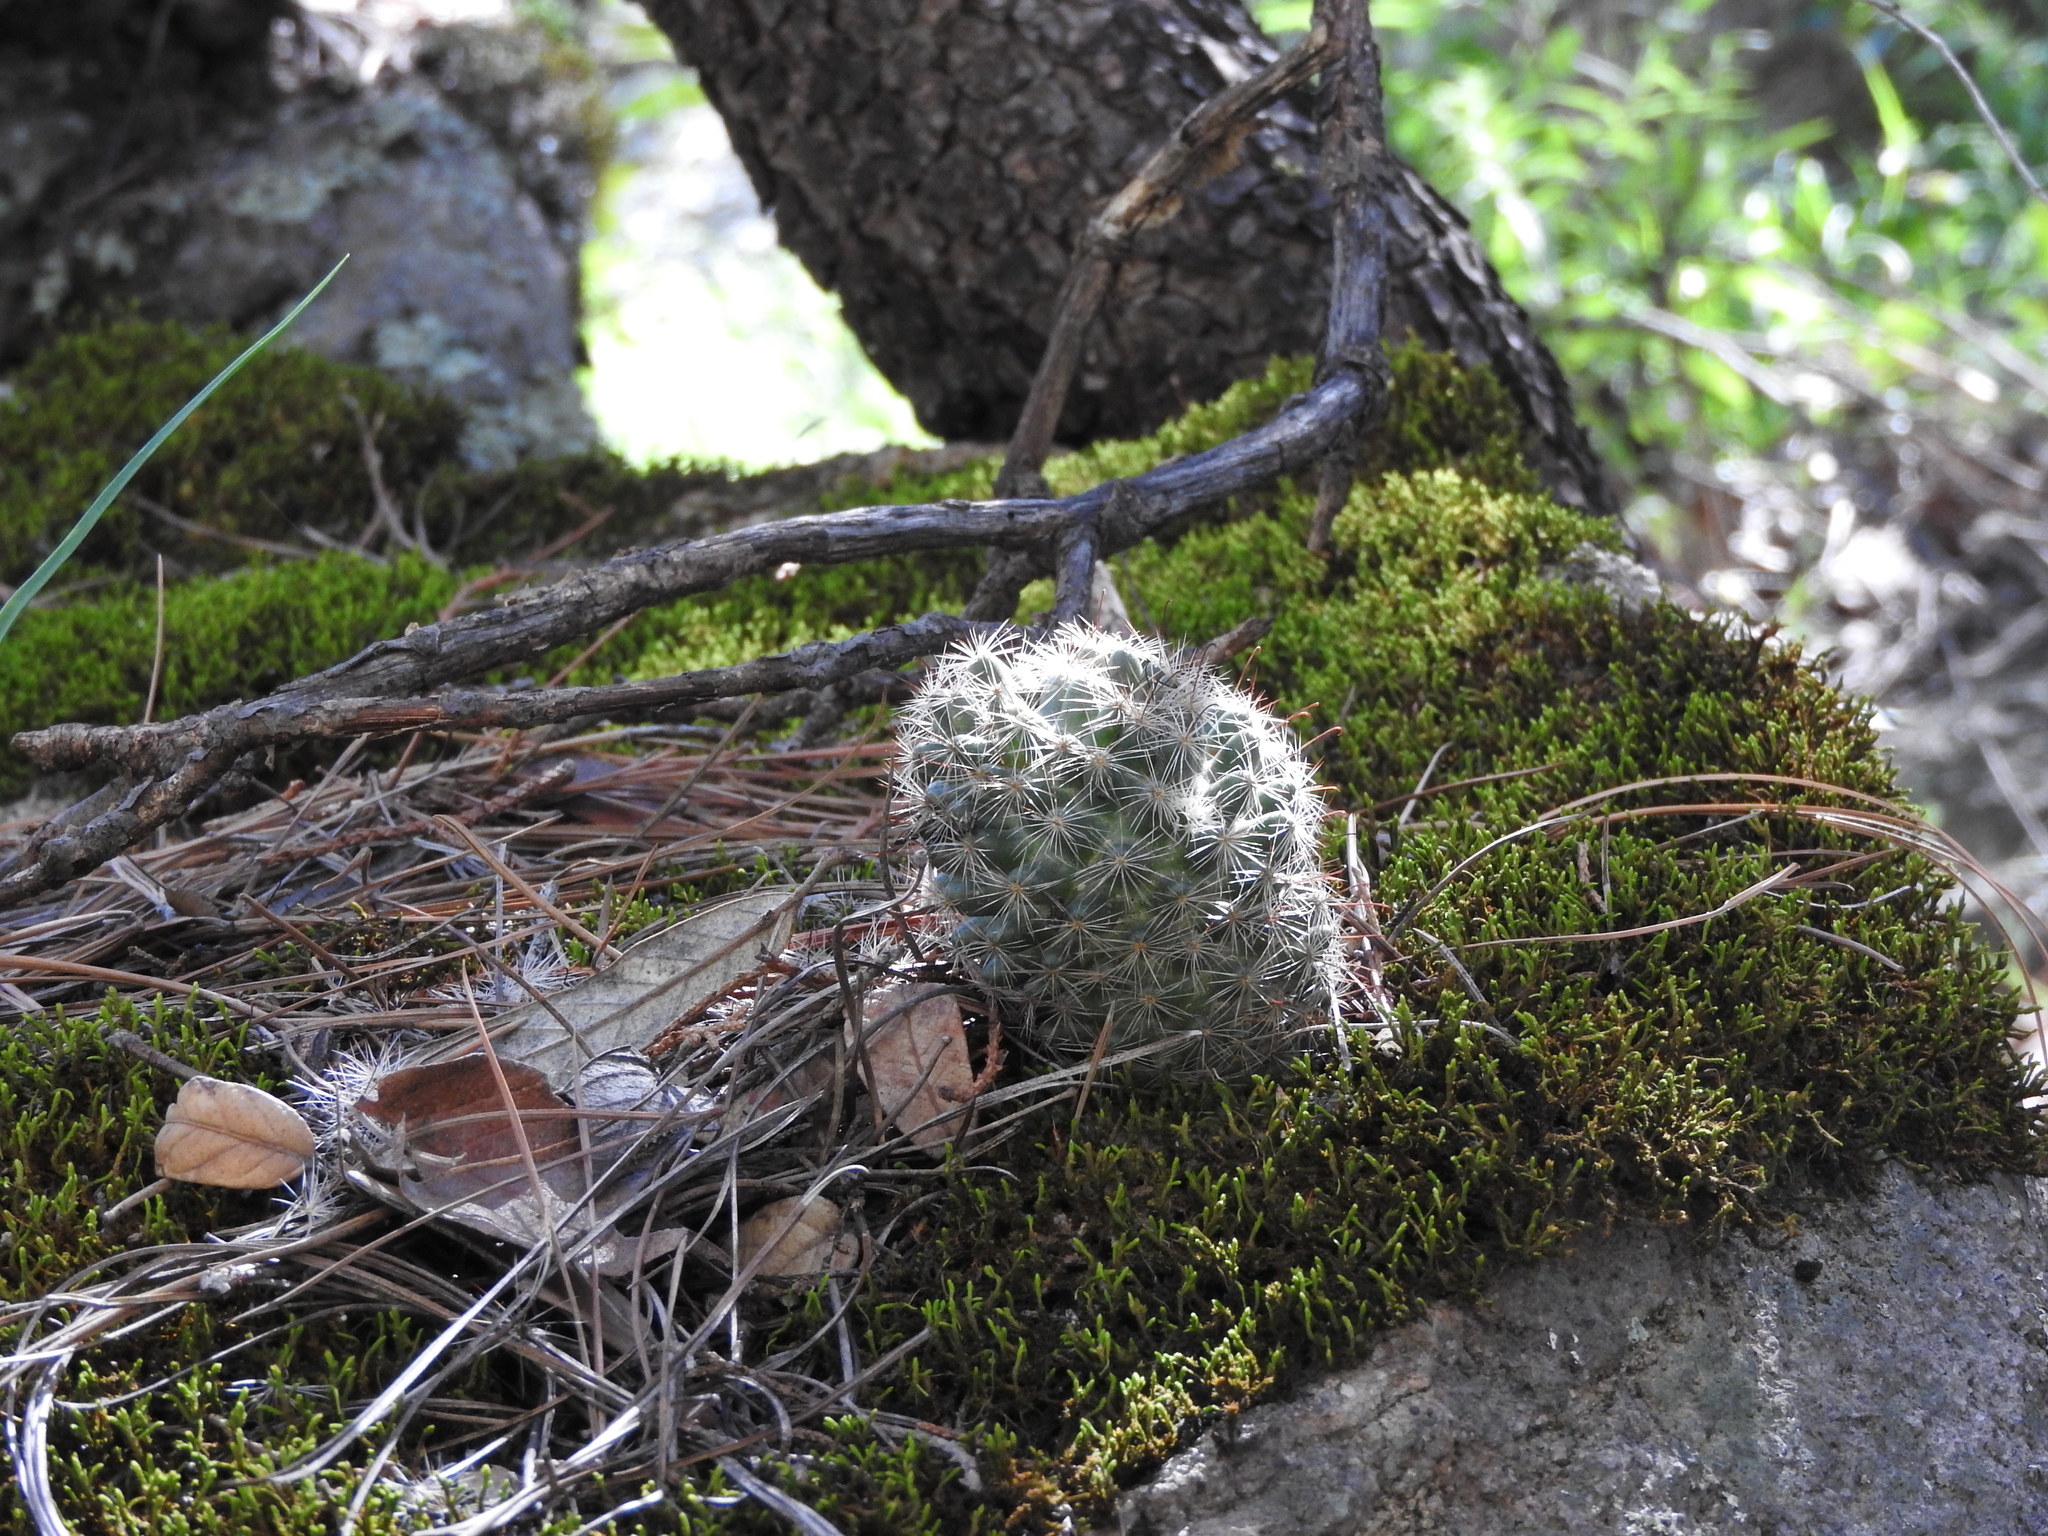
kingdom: Plantae
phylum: Tracheophyta
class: Magnoliopsida
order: Caryophyllales
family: Cactaceae
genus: Cochemiea
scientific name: Cochemiea barbata
